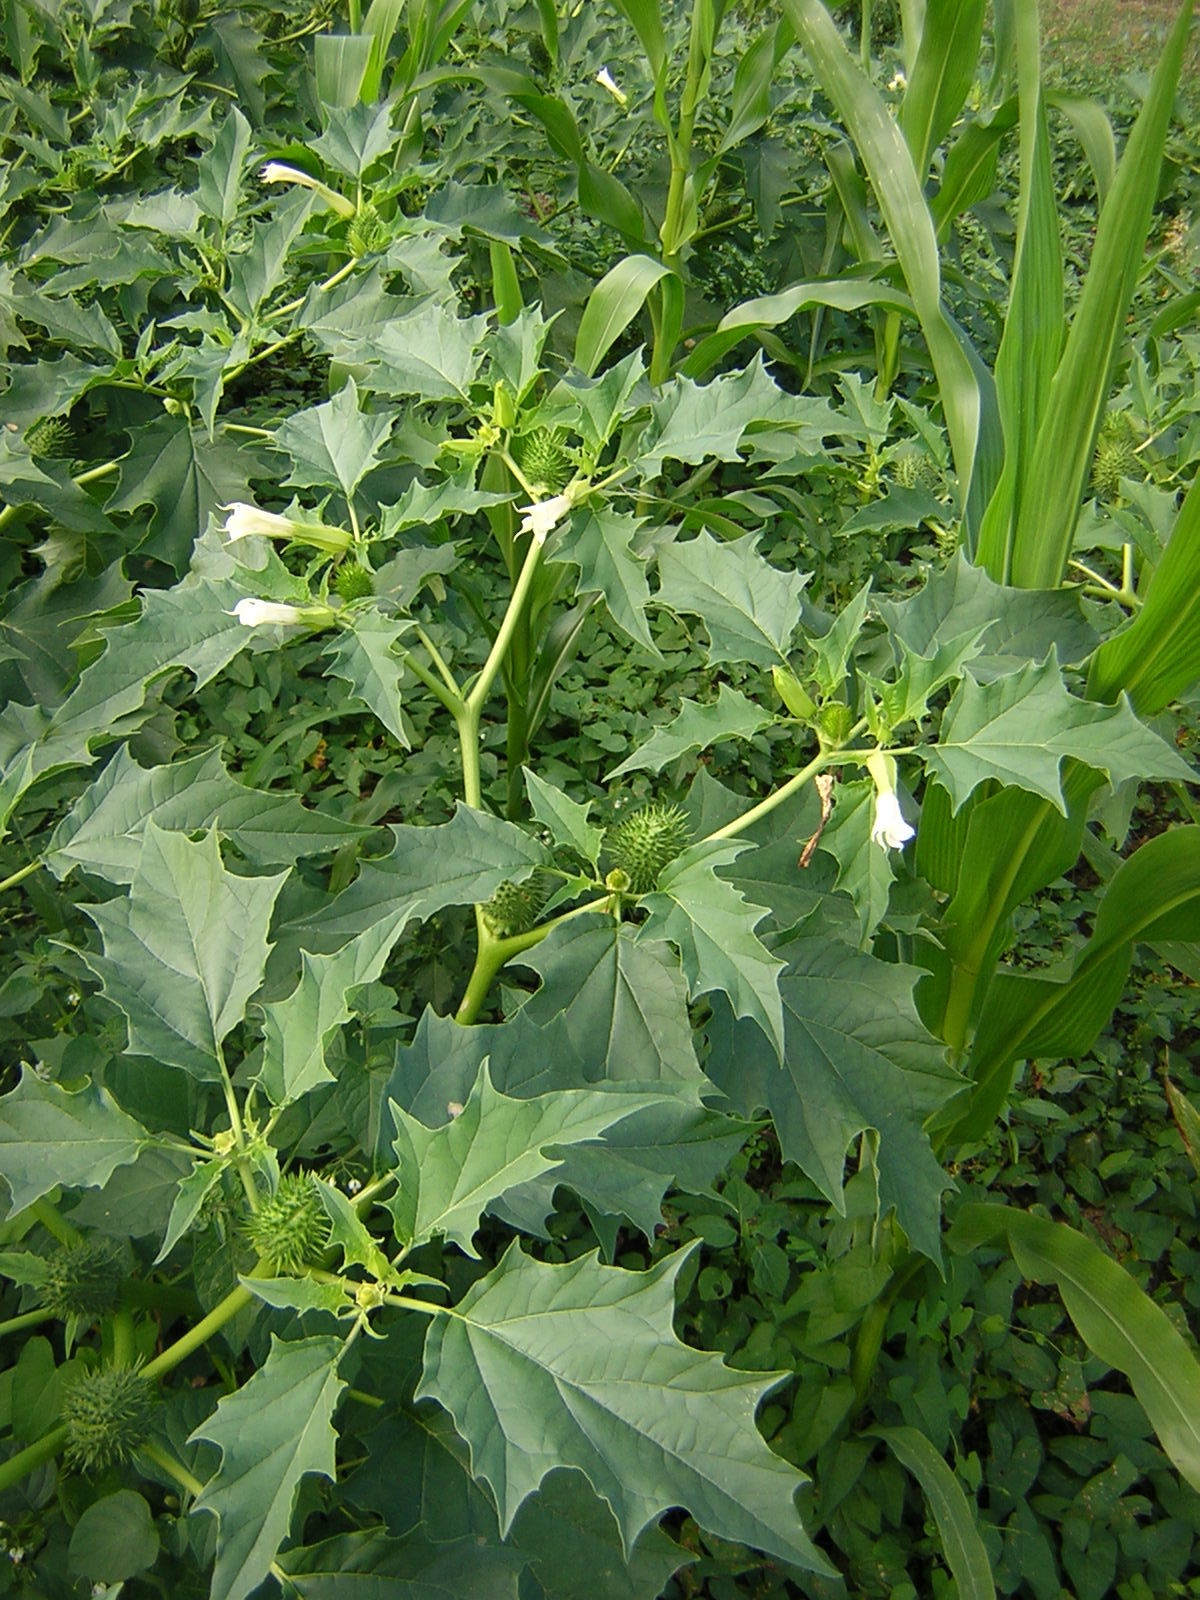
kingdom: Plantae
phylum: Tracheophyta
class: Magnoliopsida
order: Solanales
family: Solanaceae
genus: Datura
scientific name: Datura stramonium
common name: Thorn-apple
